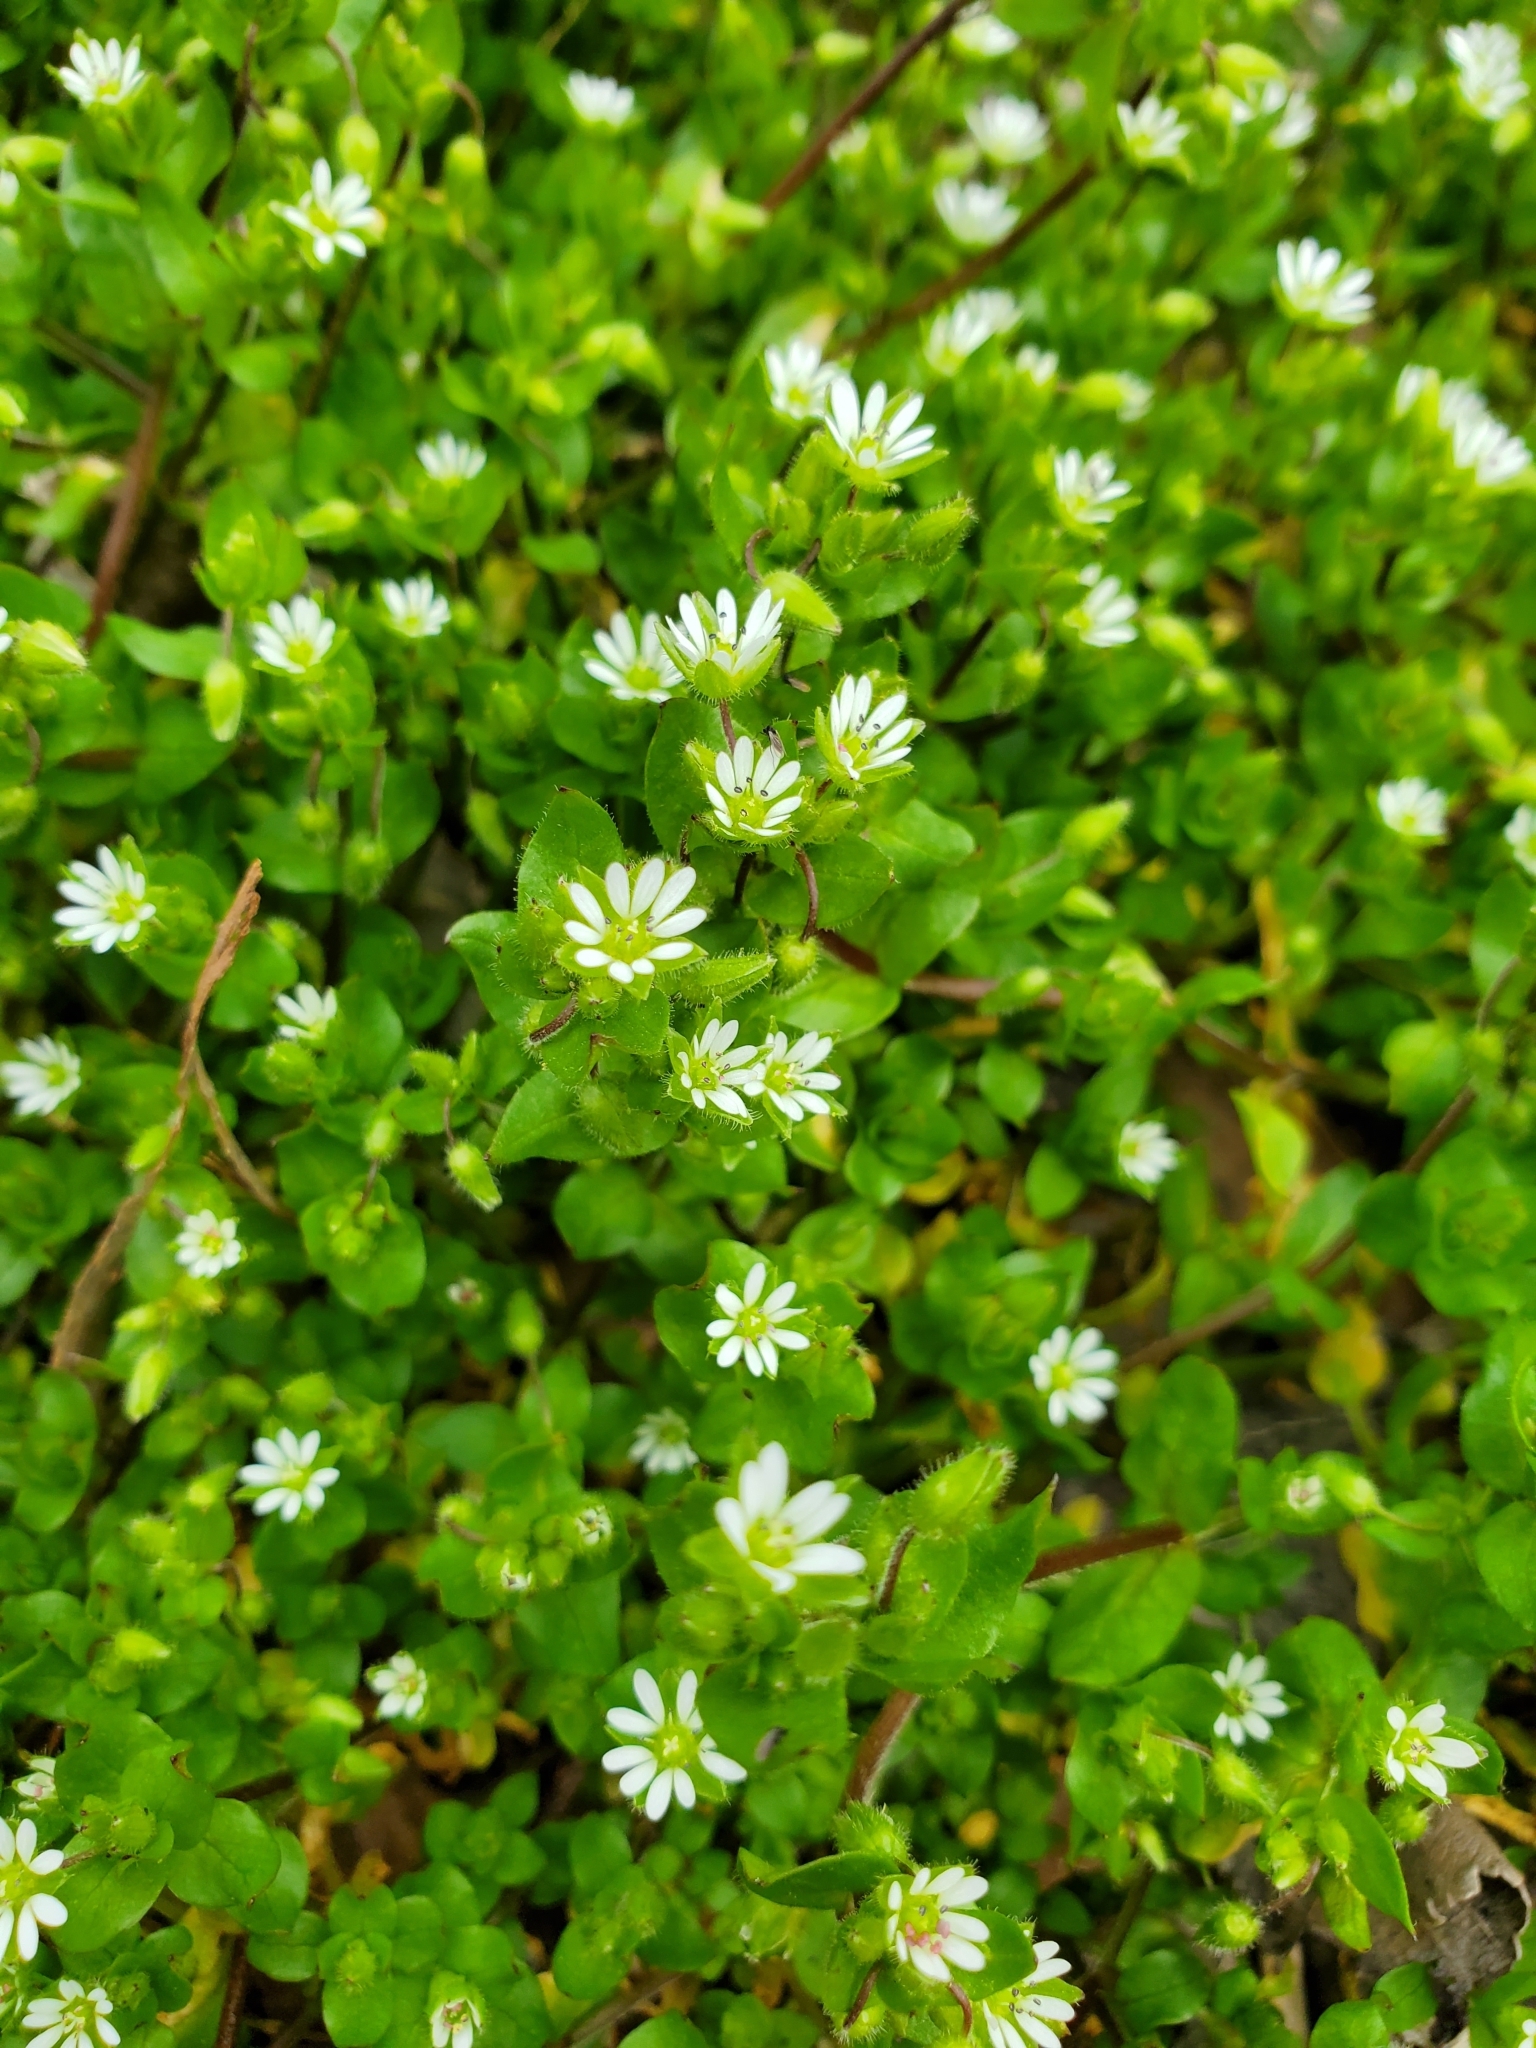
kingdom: Plantae
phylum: Tracheophyta
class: Magnoliopsida
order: Caryophyllales
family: Caryophyllaceae
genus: Stellaria
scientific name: Stellaria media
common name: Common chickweed
